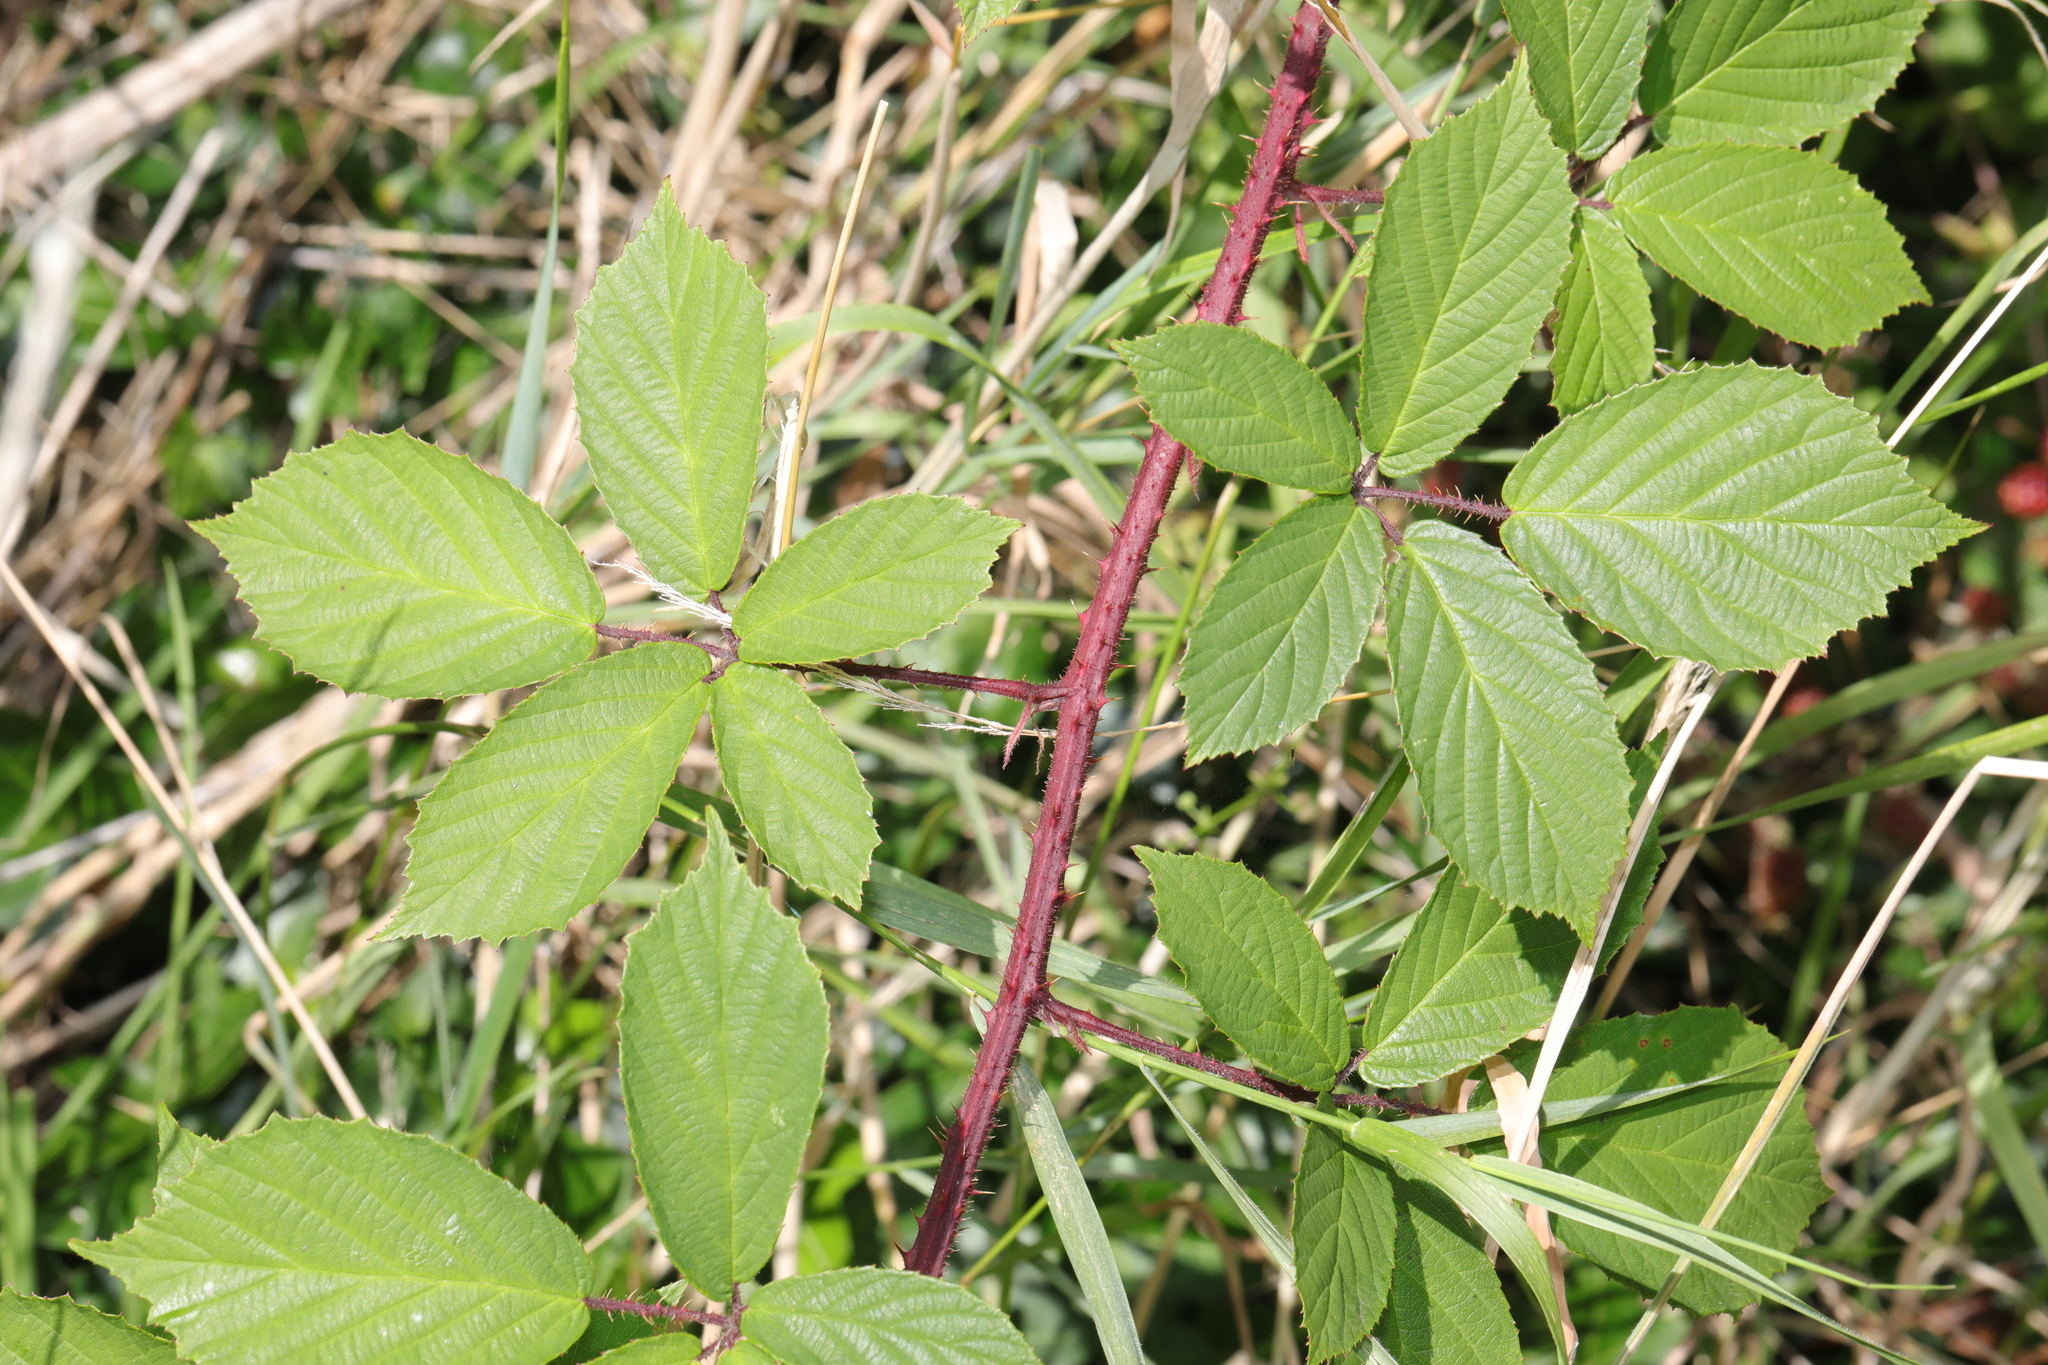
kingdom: Plantae
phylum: Tracheophyta
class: Magnoliopsida
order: Rosales
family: Rosaceae
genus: Rubus
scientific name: Rubus dasyphyllus
